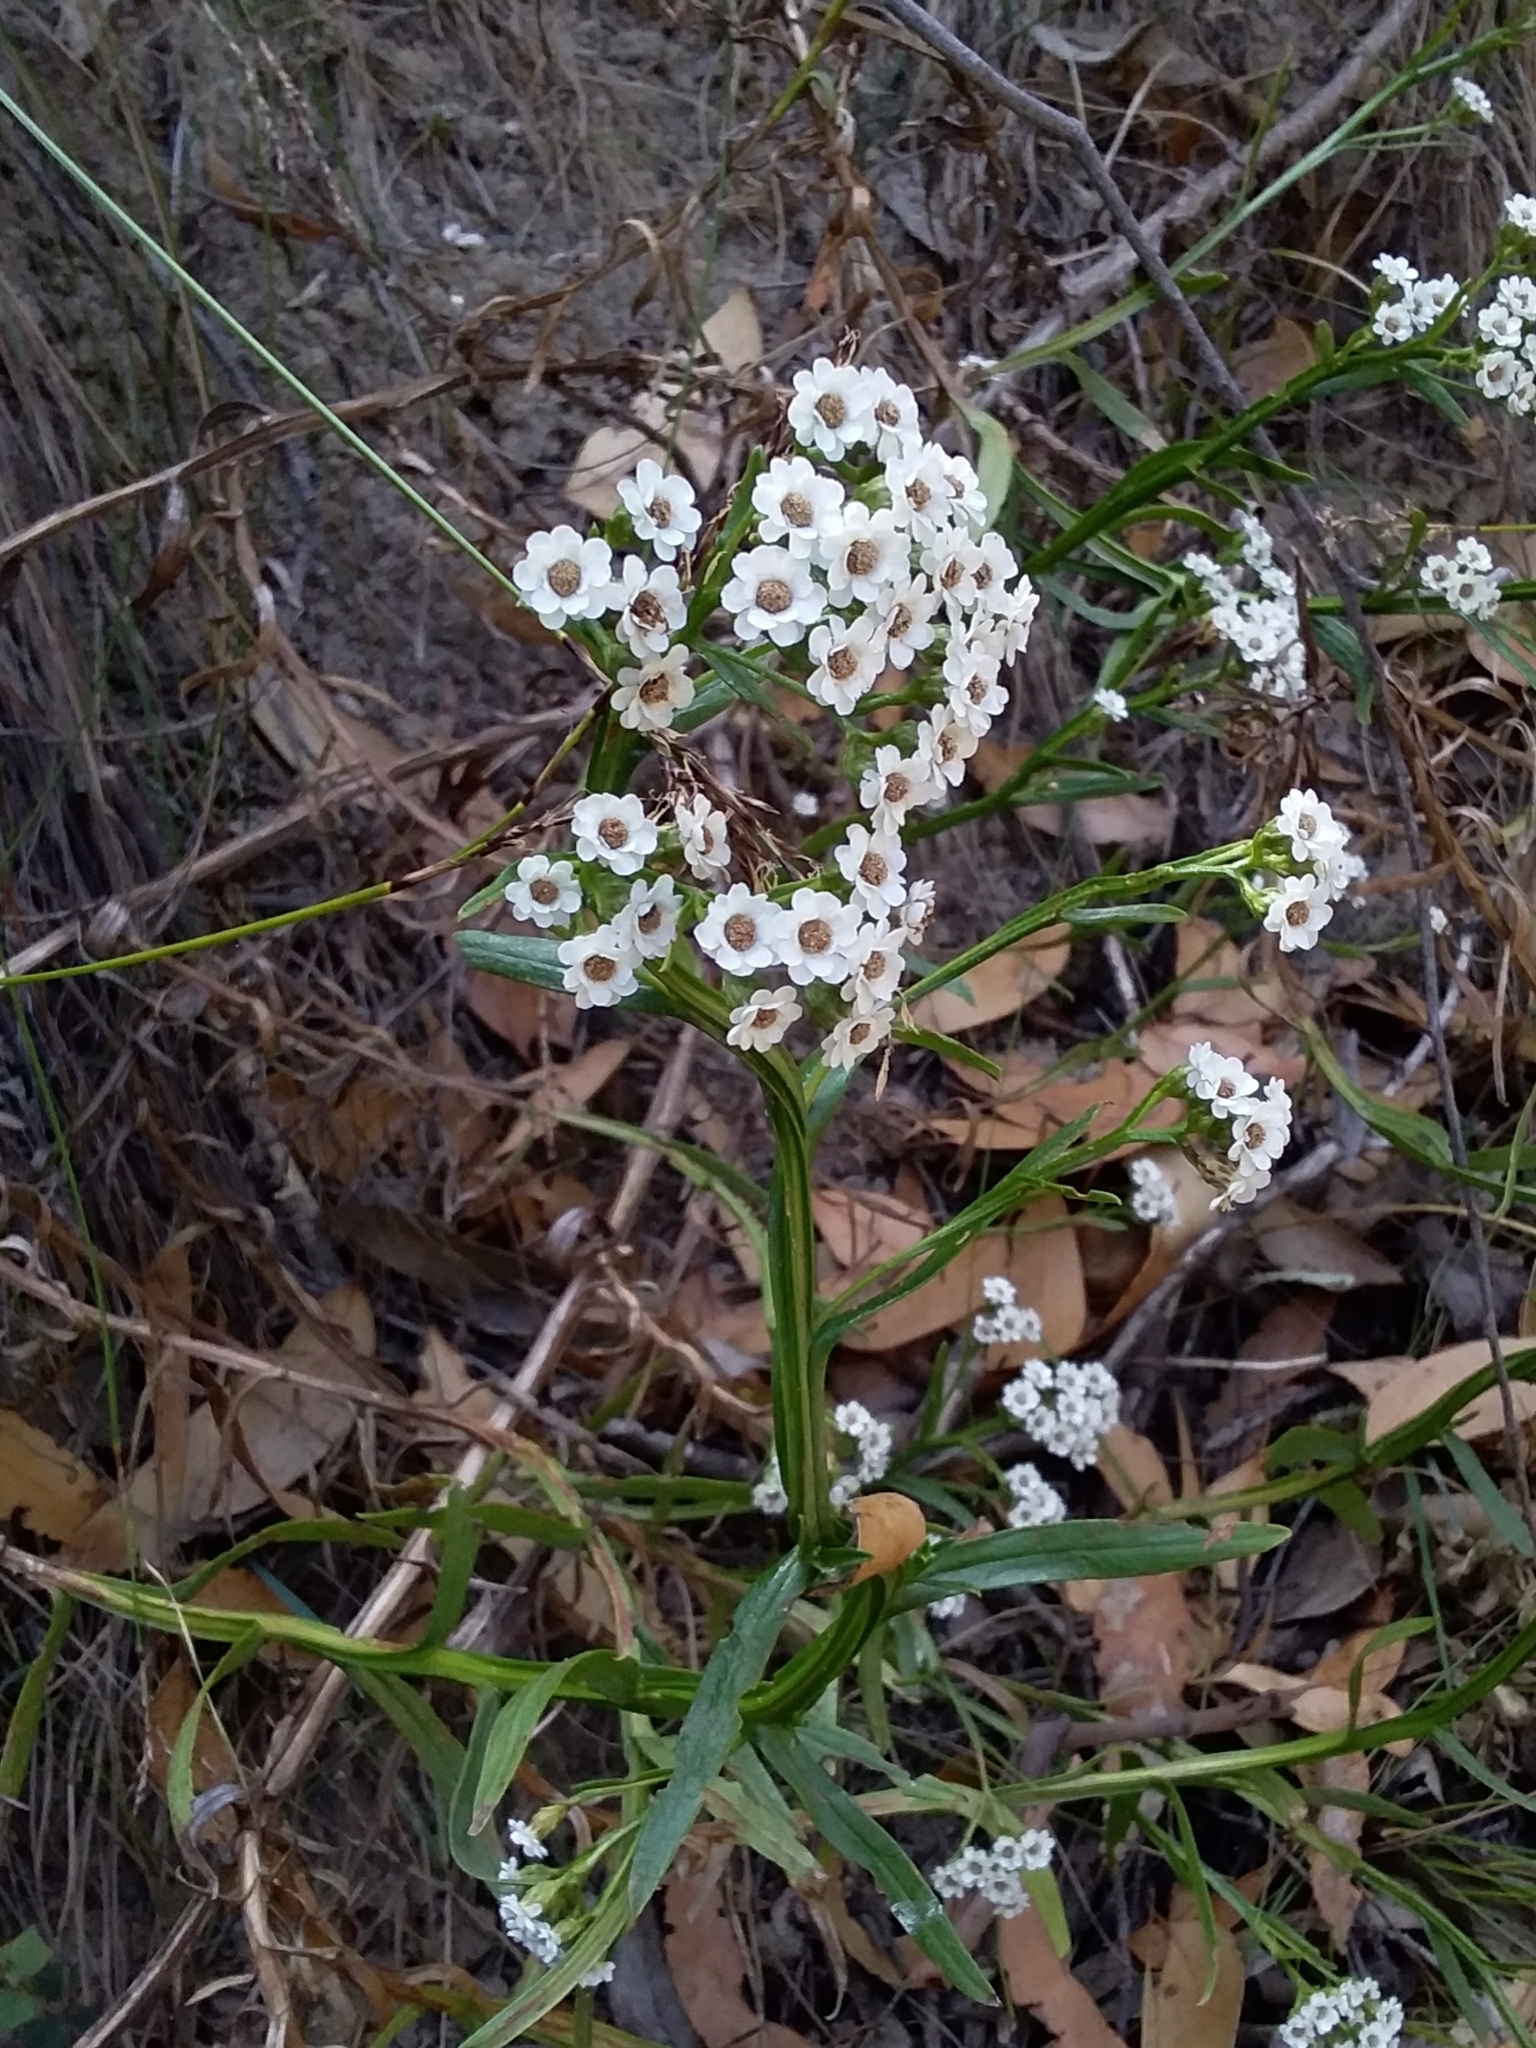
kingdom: Plantae
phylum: Tracheophyta
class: Magnoliopsida
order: Asterales
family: Asteraceae
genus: Ixodia
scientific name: Ixodia achillaeoides
